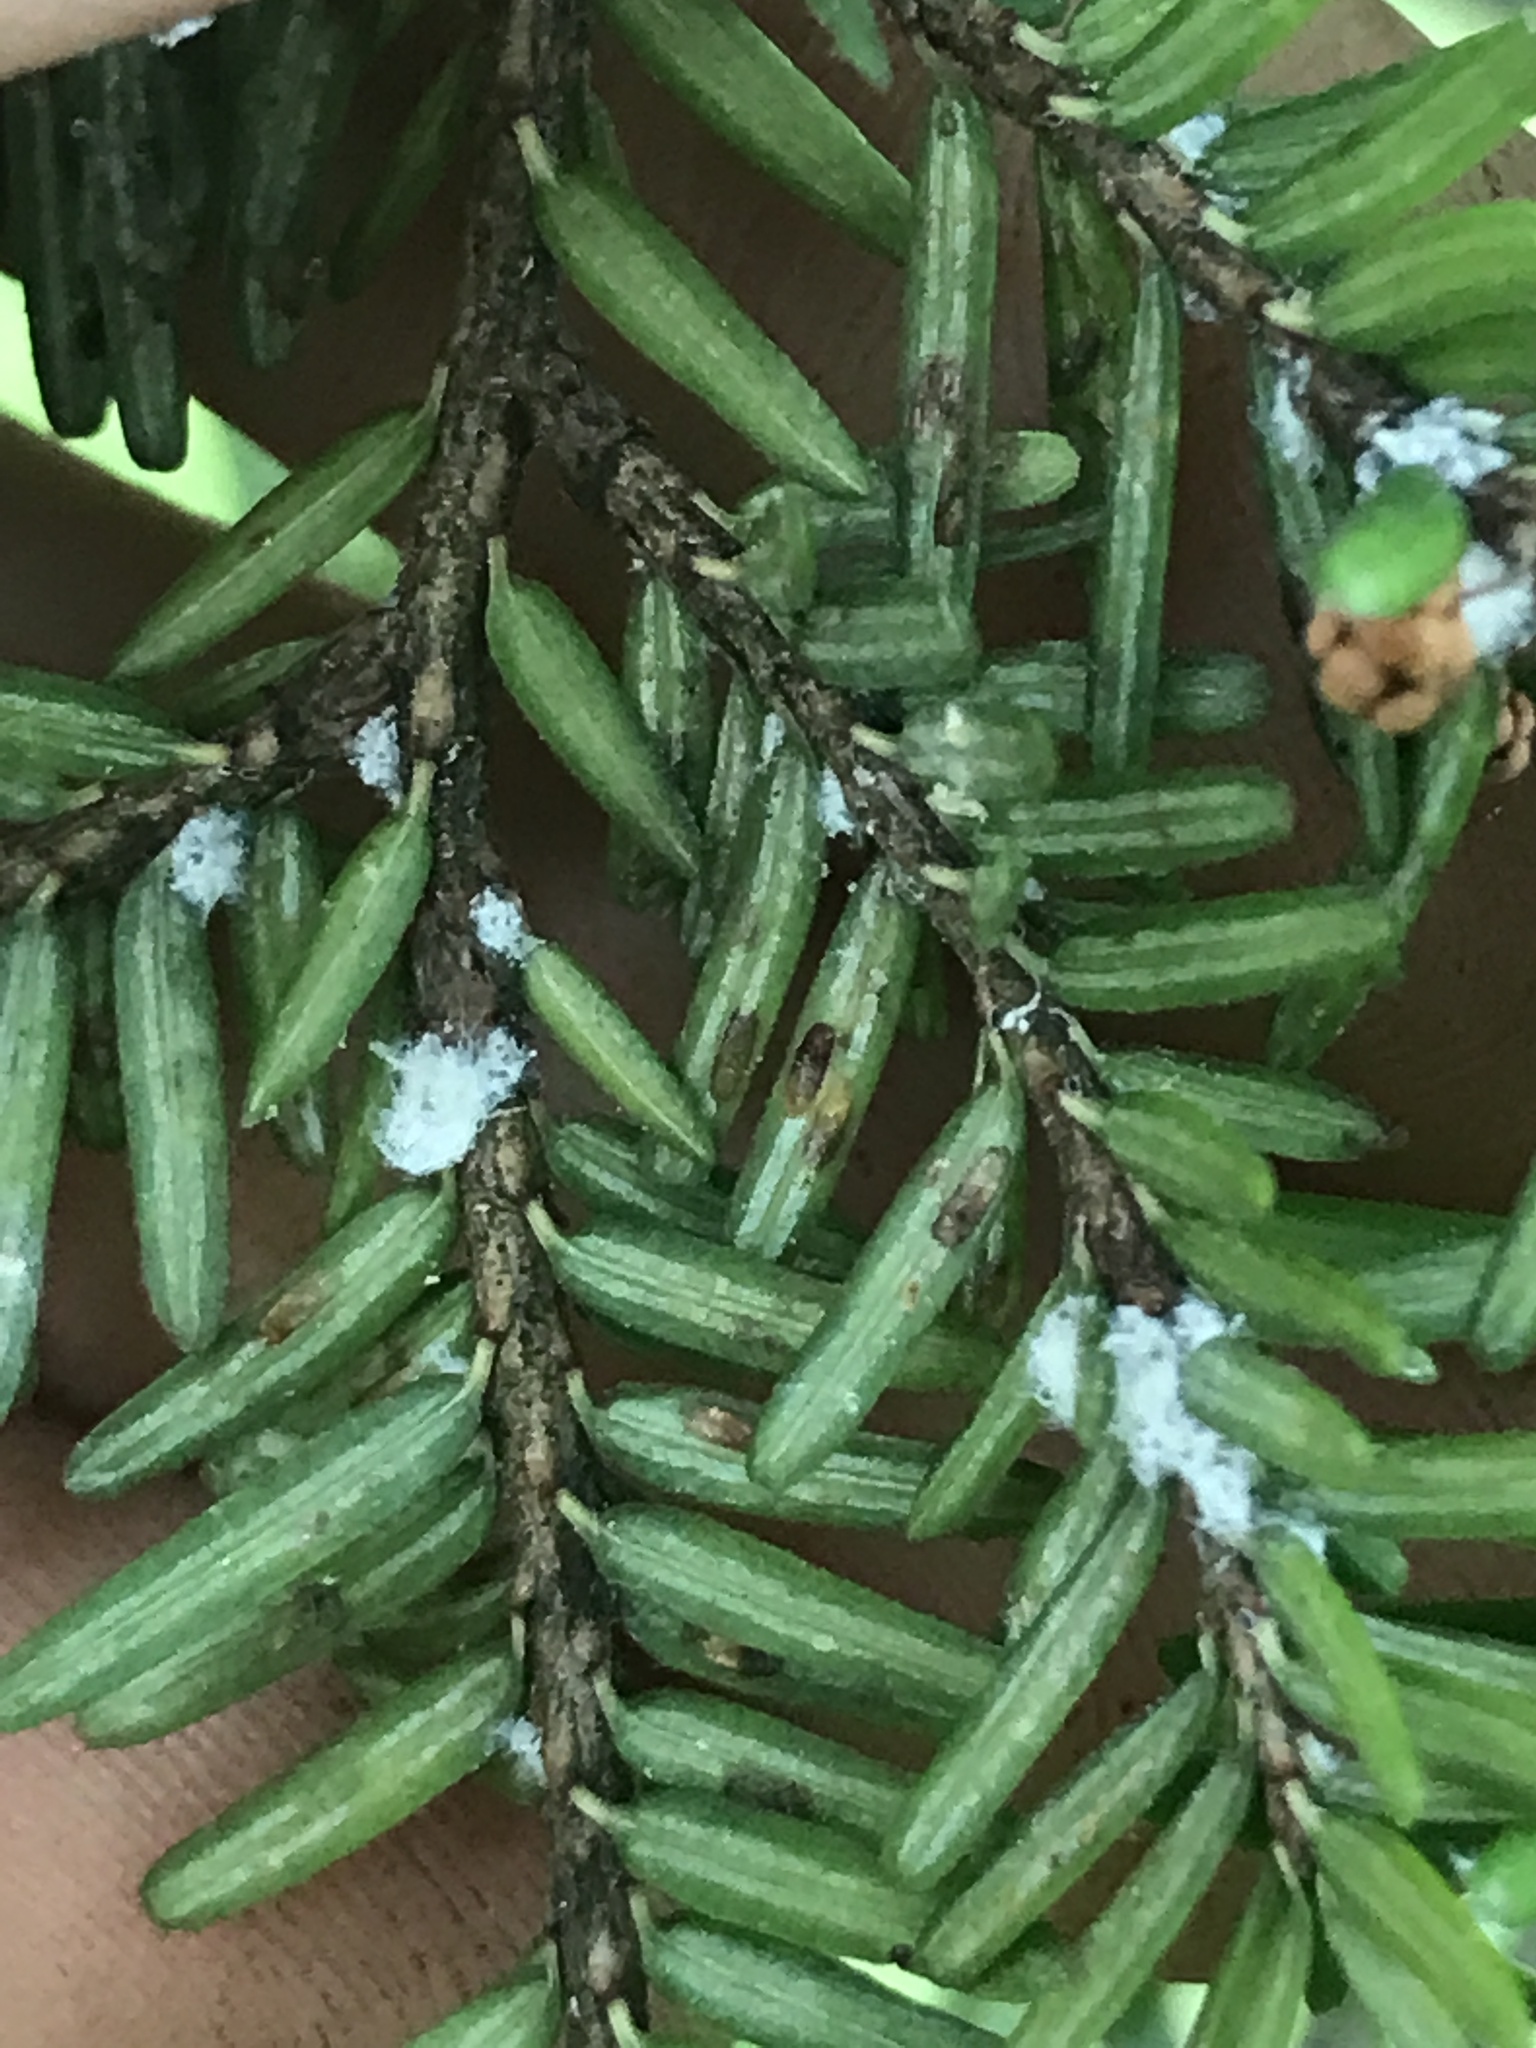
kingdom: Animalia
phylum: Arthropoda
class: Insecta
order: Hemiptera
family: Diaspididae
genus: Fiorinia
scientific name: Fiorinia externa
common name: Elongate hemlock scale
